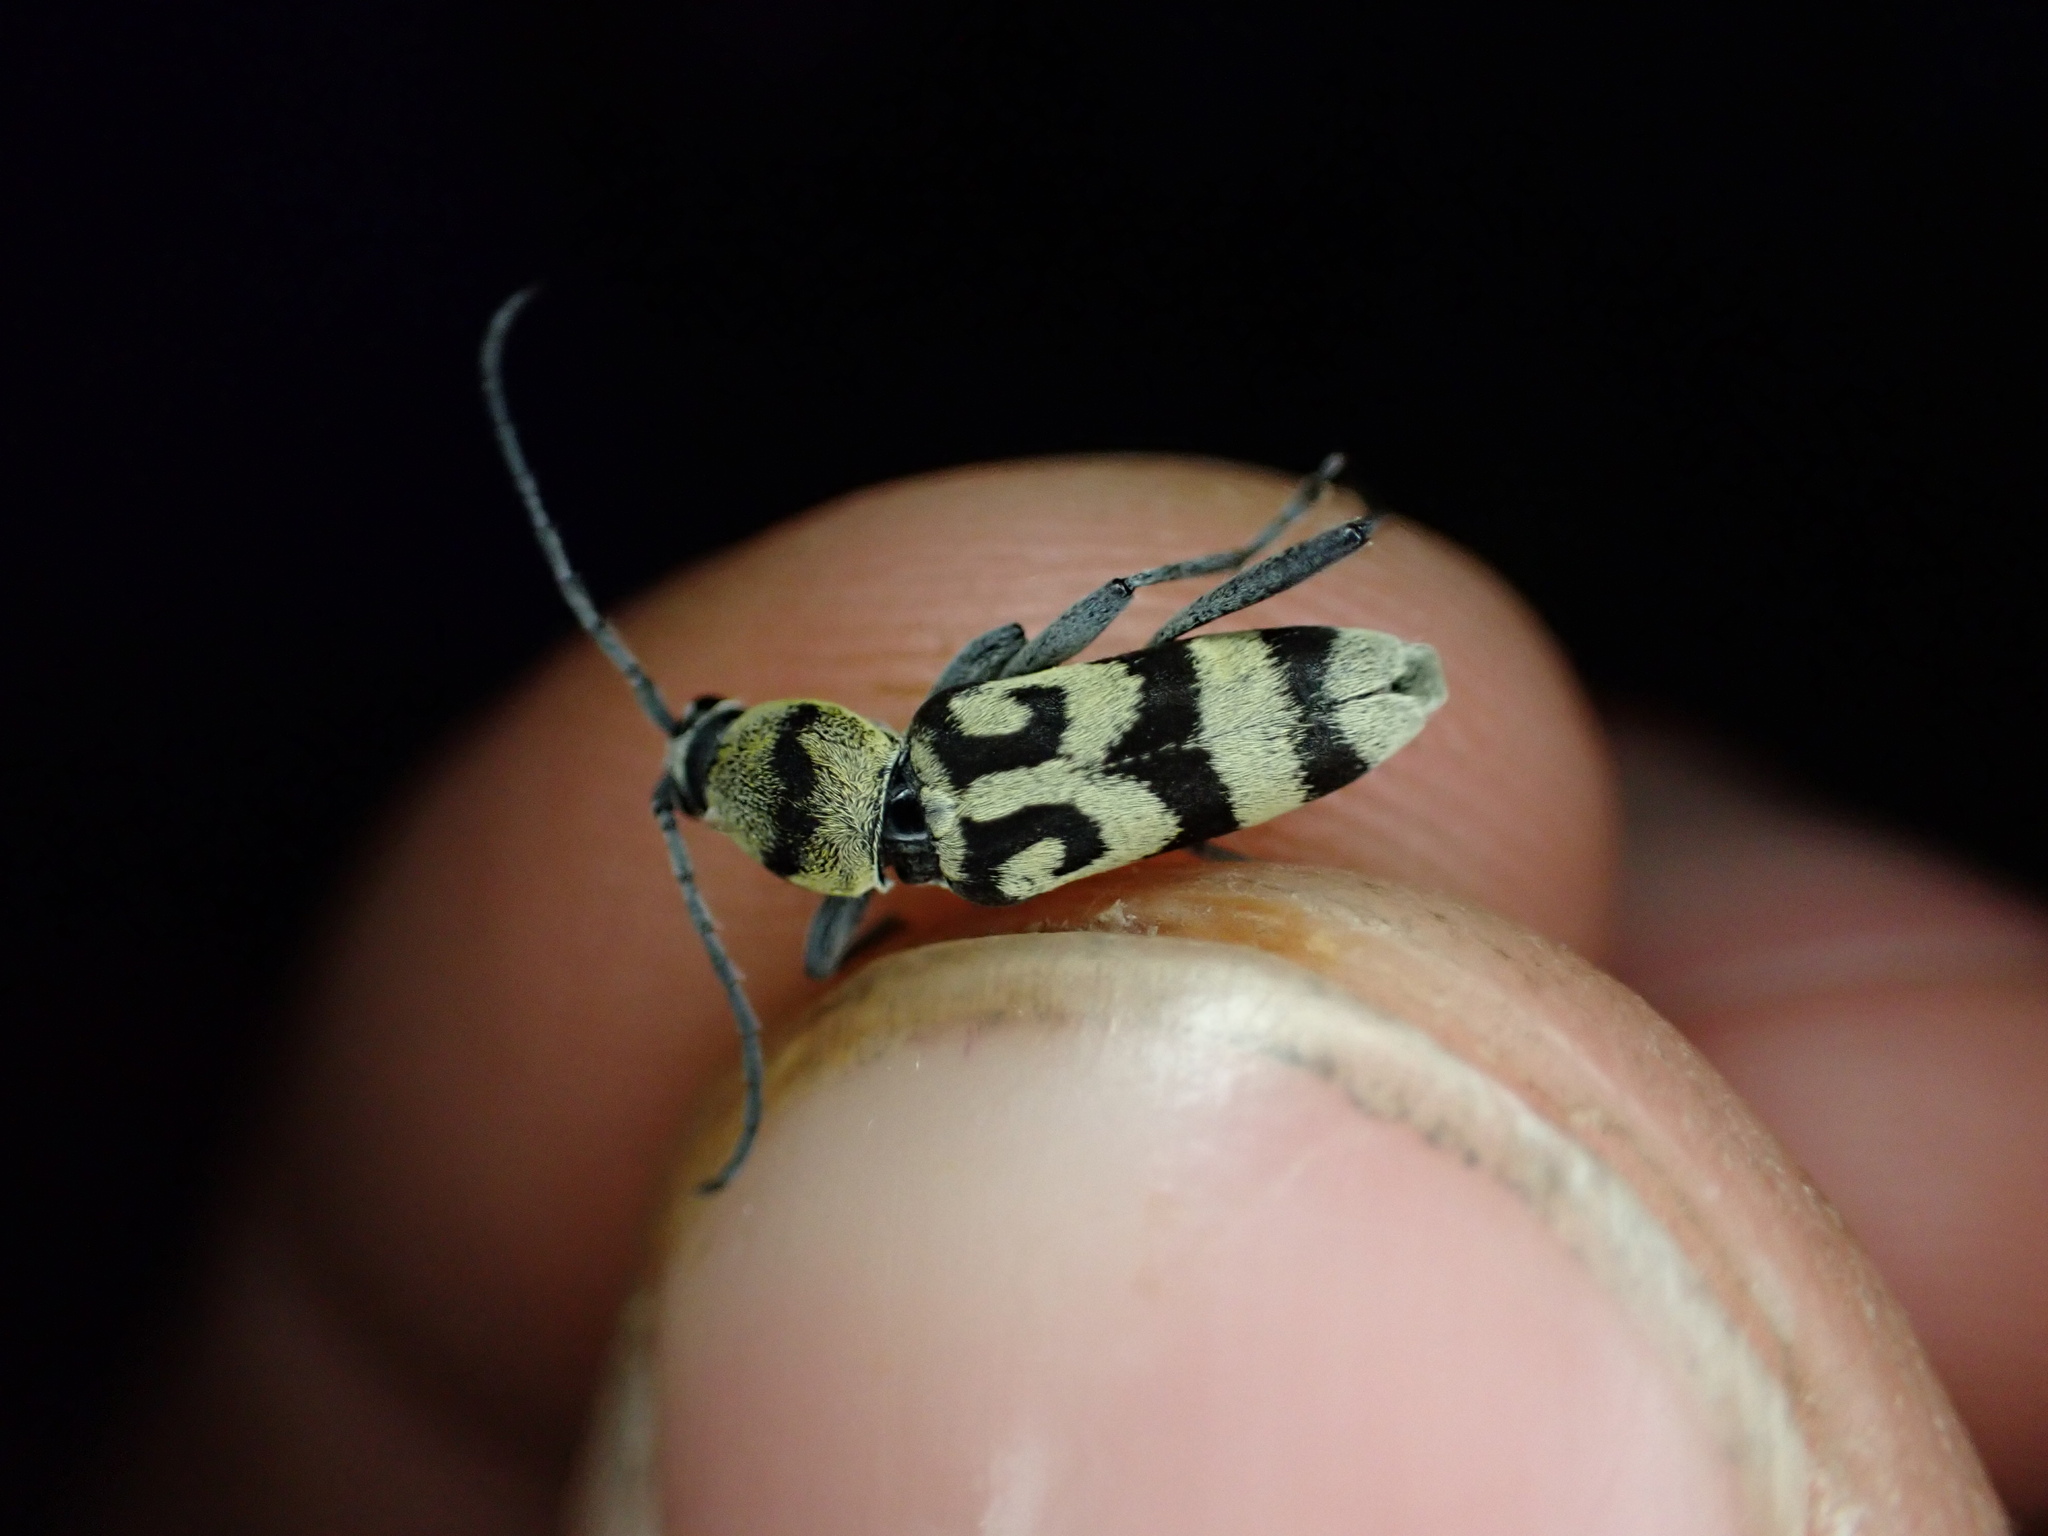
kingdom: Animalia
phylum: Arthropoda
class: Insecta
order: Coleoptera
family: Cerambycidae
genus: Chlorophorus
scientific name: Chlorophorus varius
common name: Grape wood borer
